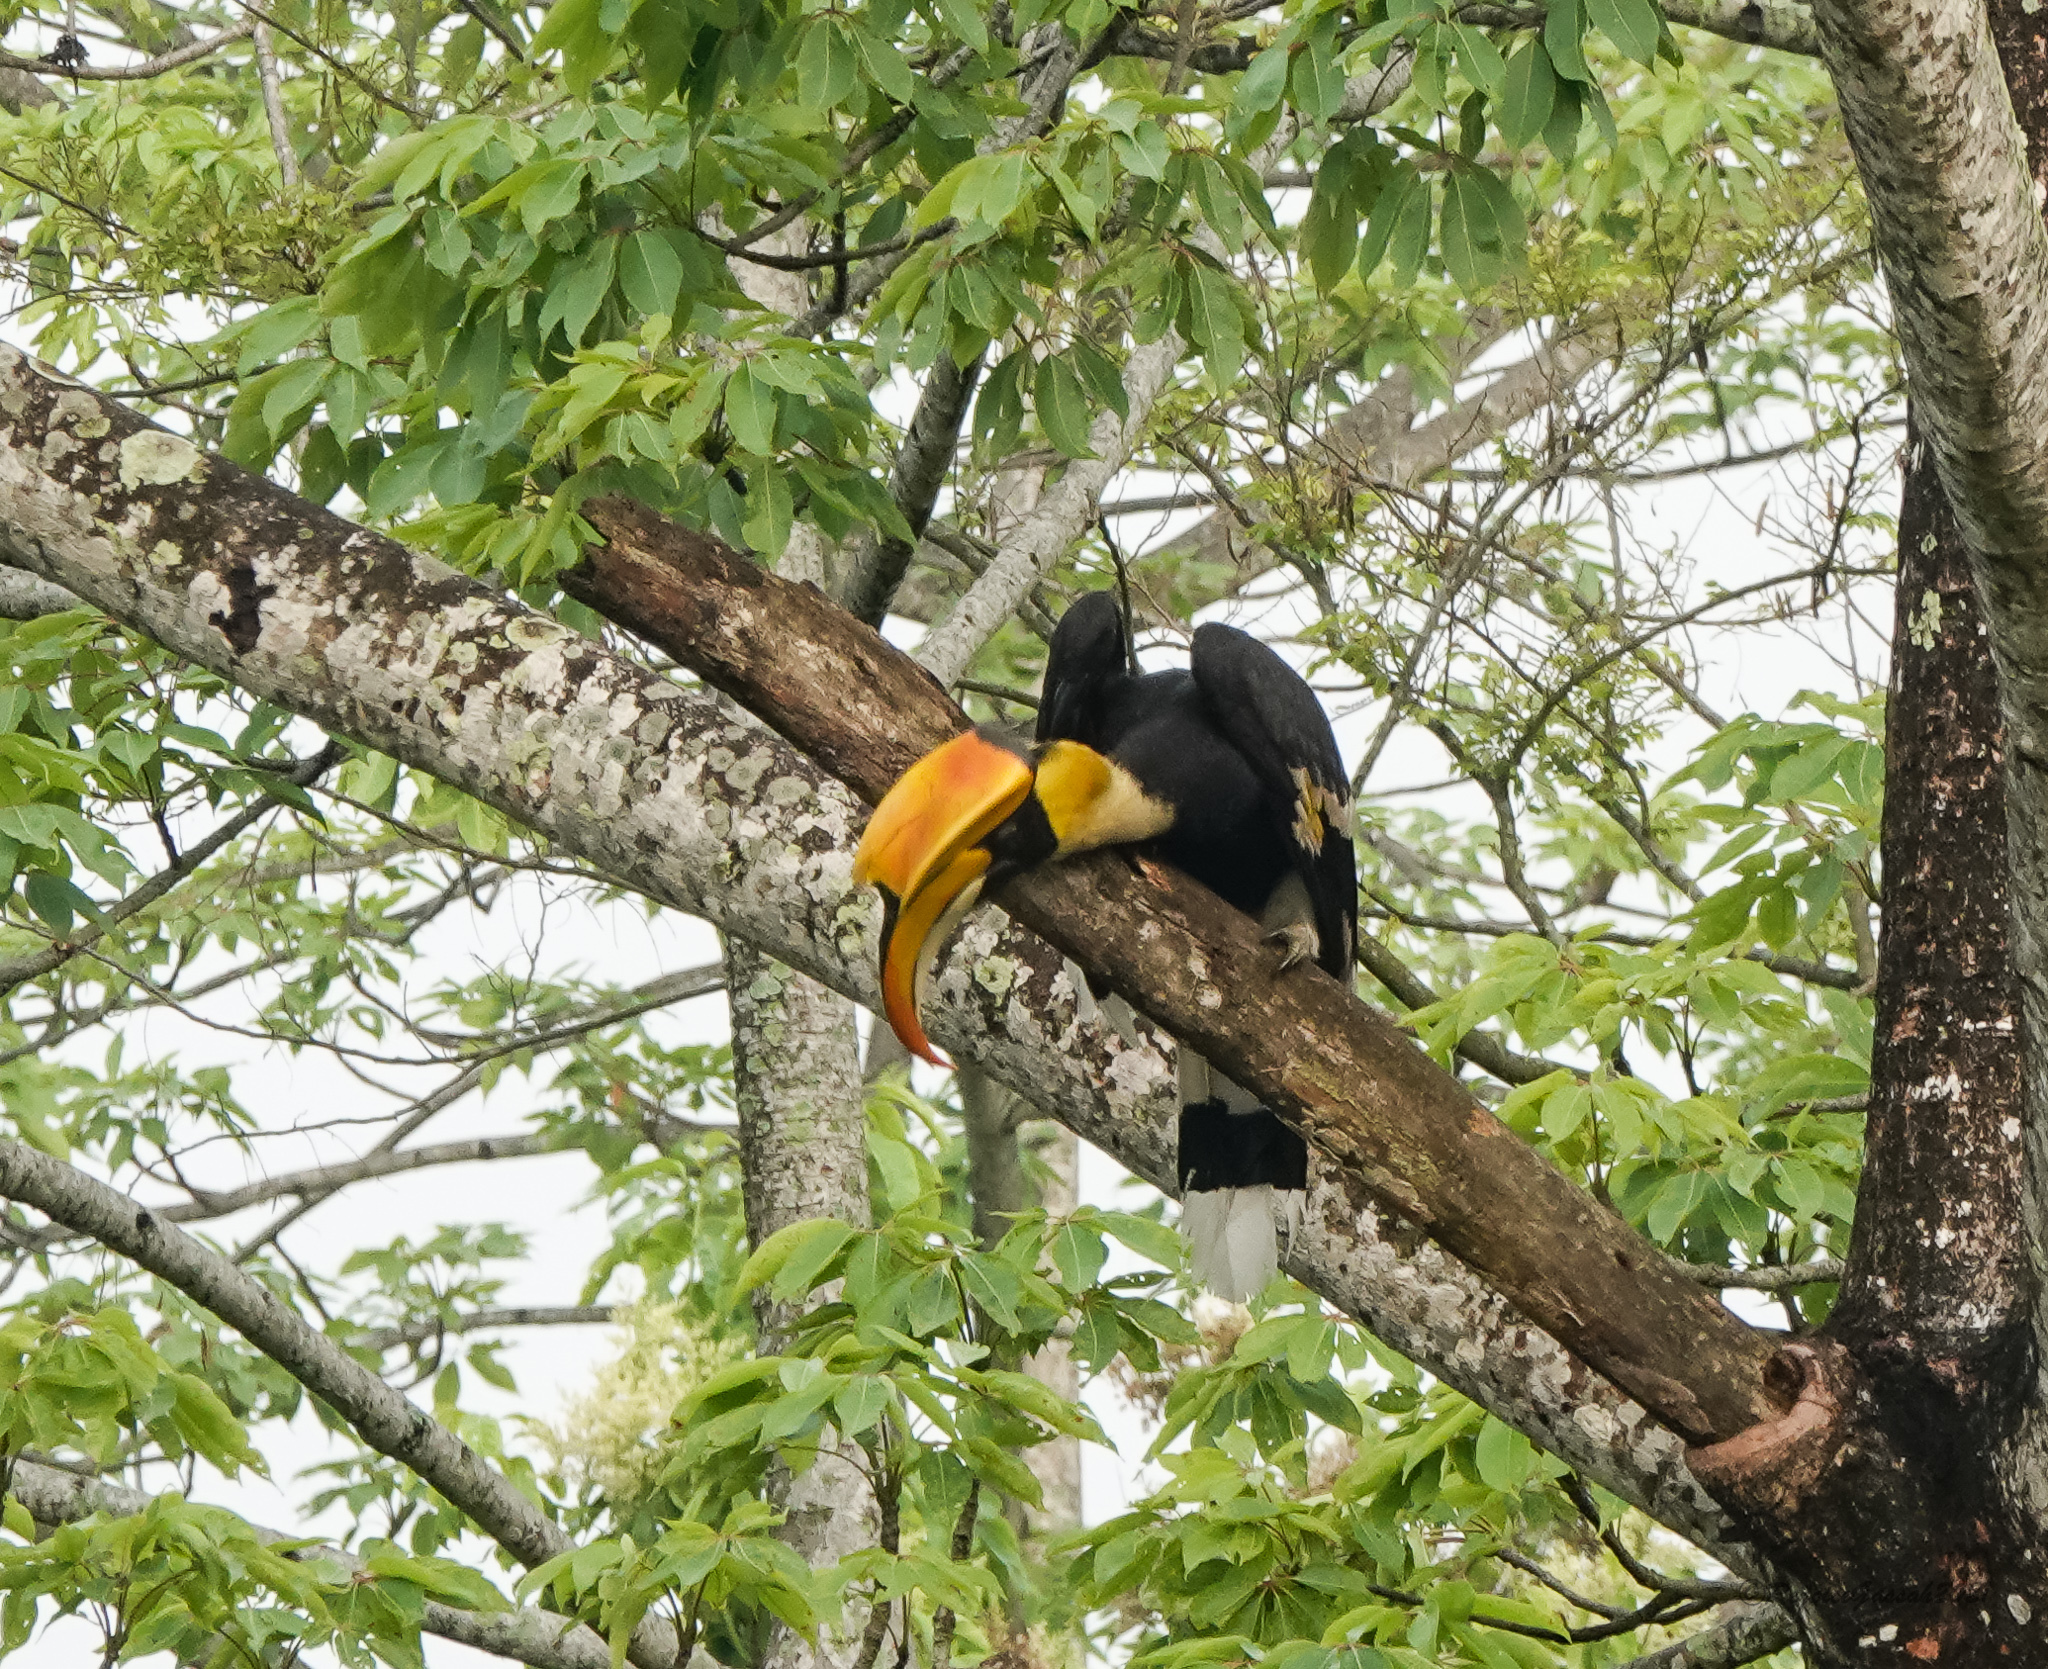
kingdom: Animalia
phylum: Chordata
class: Aves
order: Bucerotiformes
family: Bucerotidae
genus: Buceros
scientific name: Buceros bicornis
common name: Great hornbill
